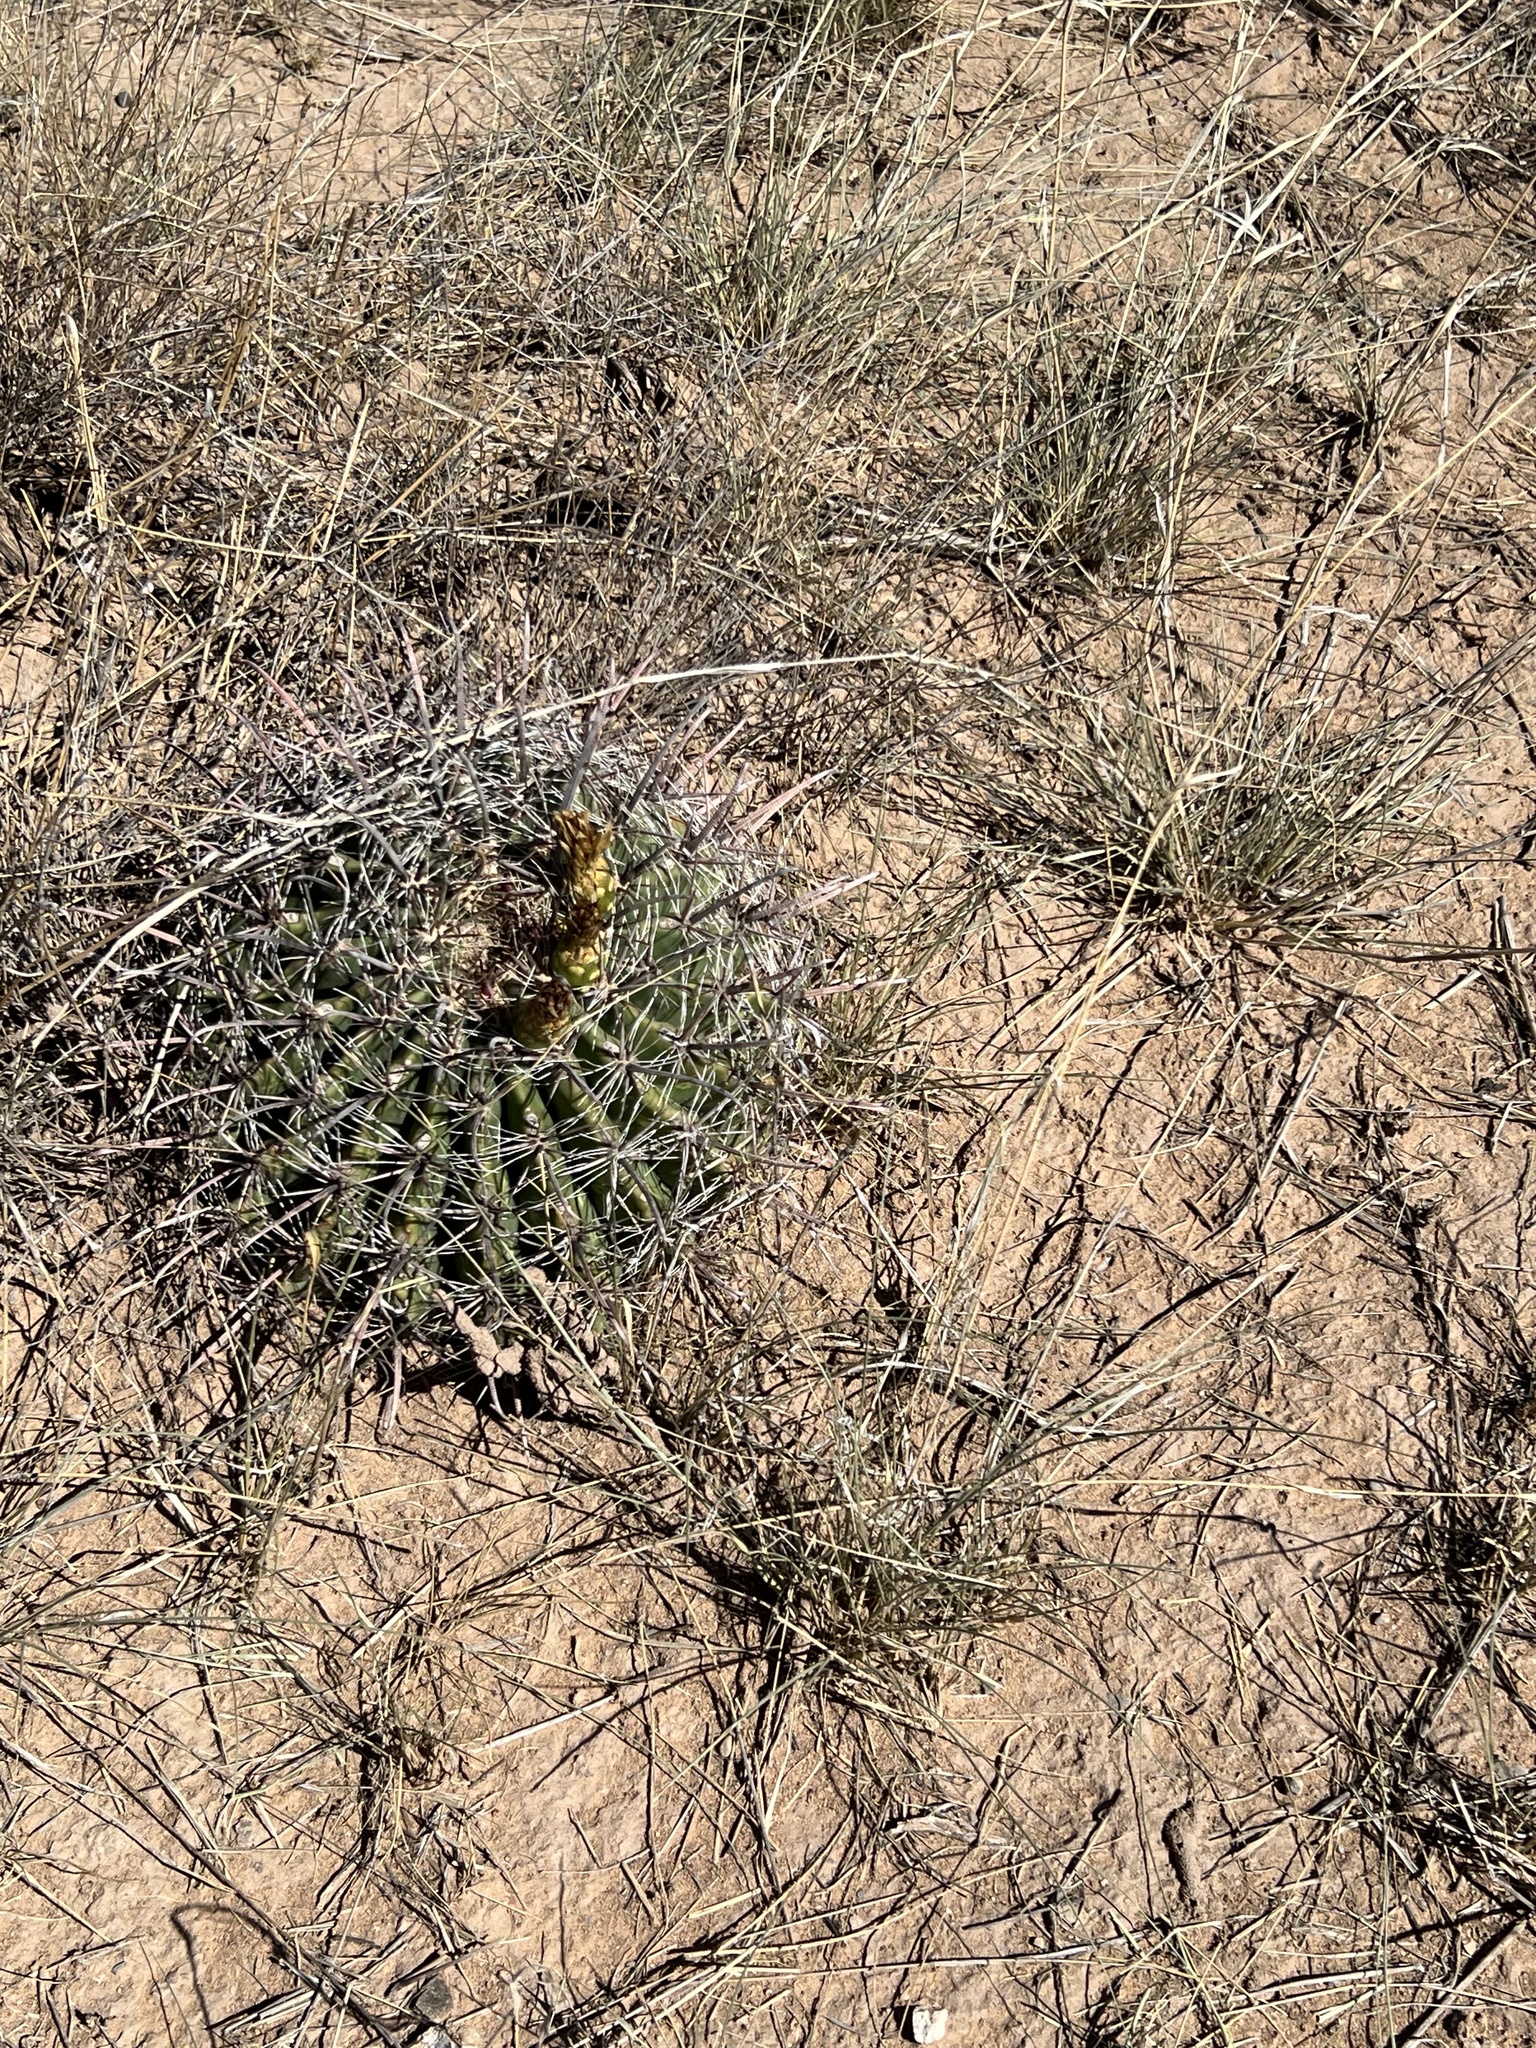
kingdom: Plantae
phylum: Tracheophyta
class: Magnoliopsida
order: Caryophyllales
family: Cactaceae
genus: Ferocactus
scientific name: Ferocactus wislizeni
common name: Candy barrel cactus
